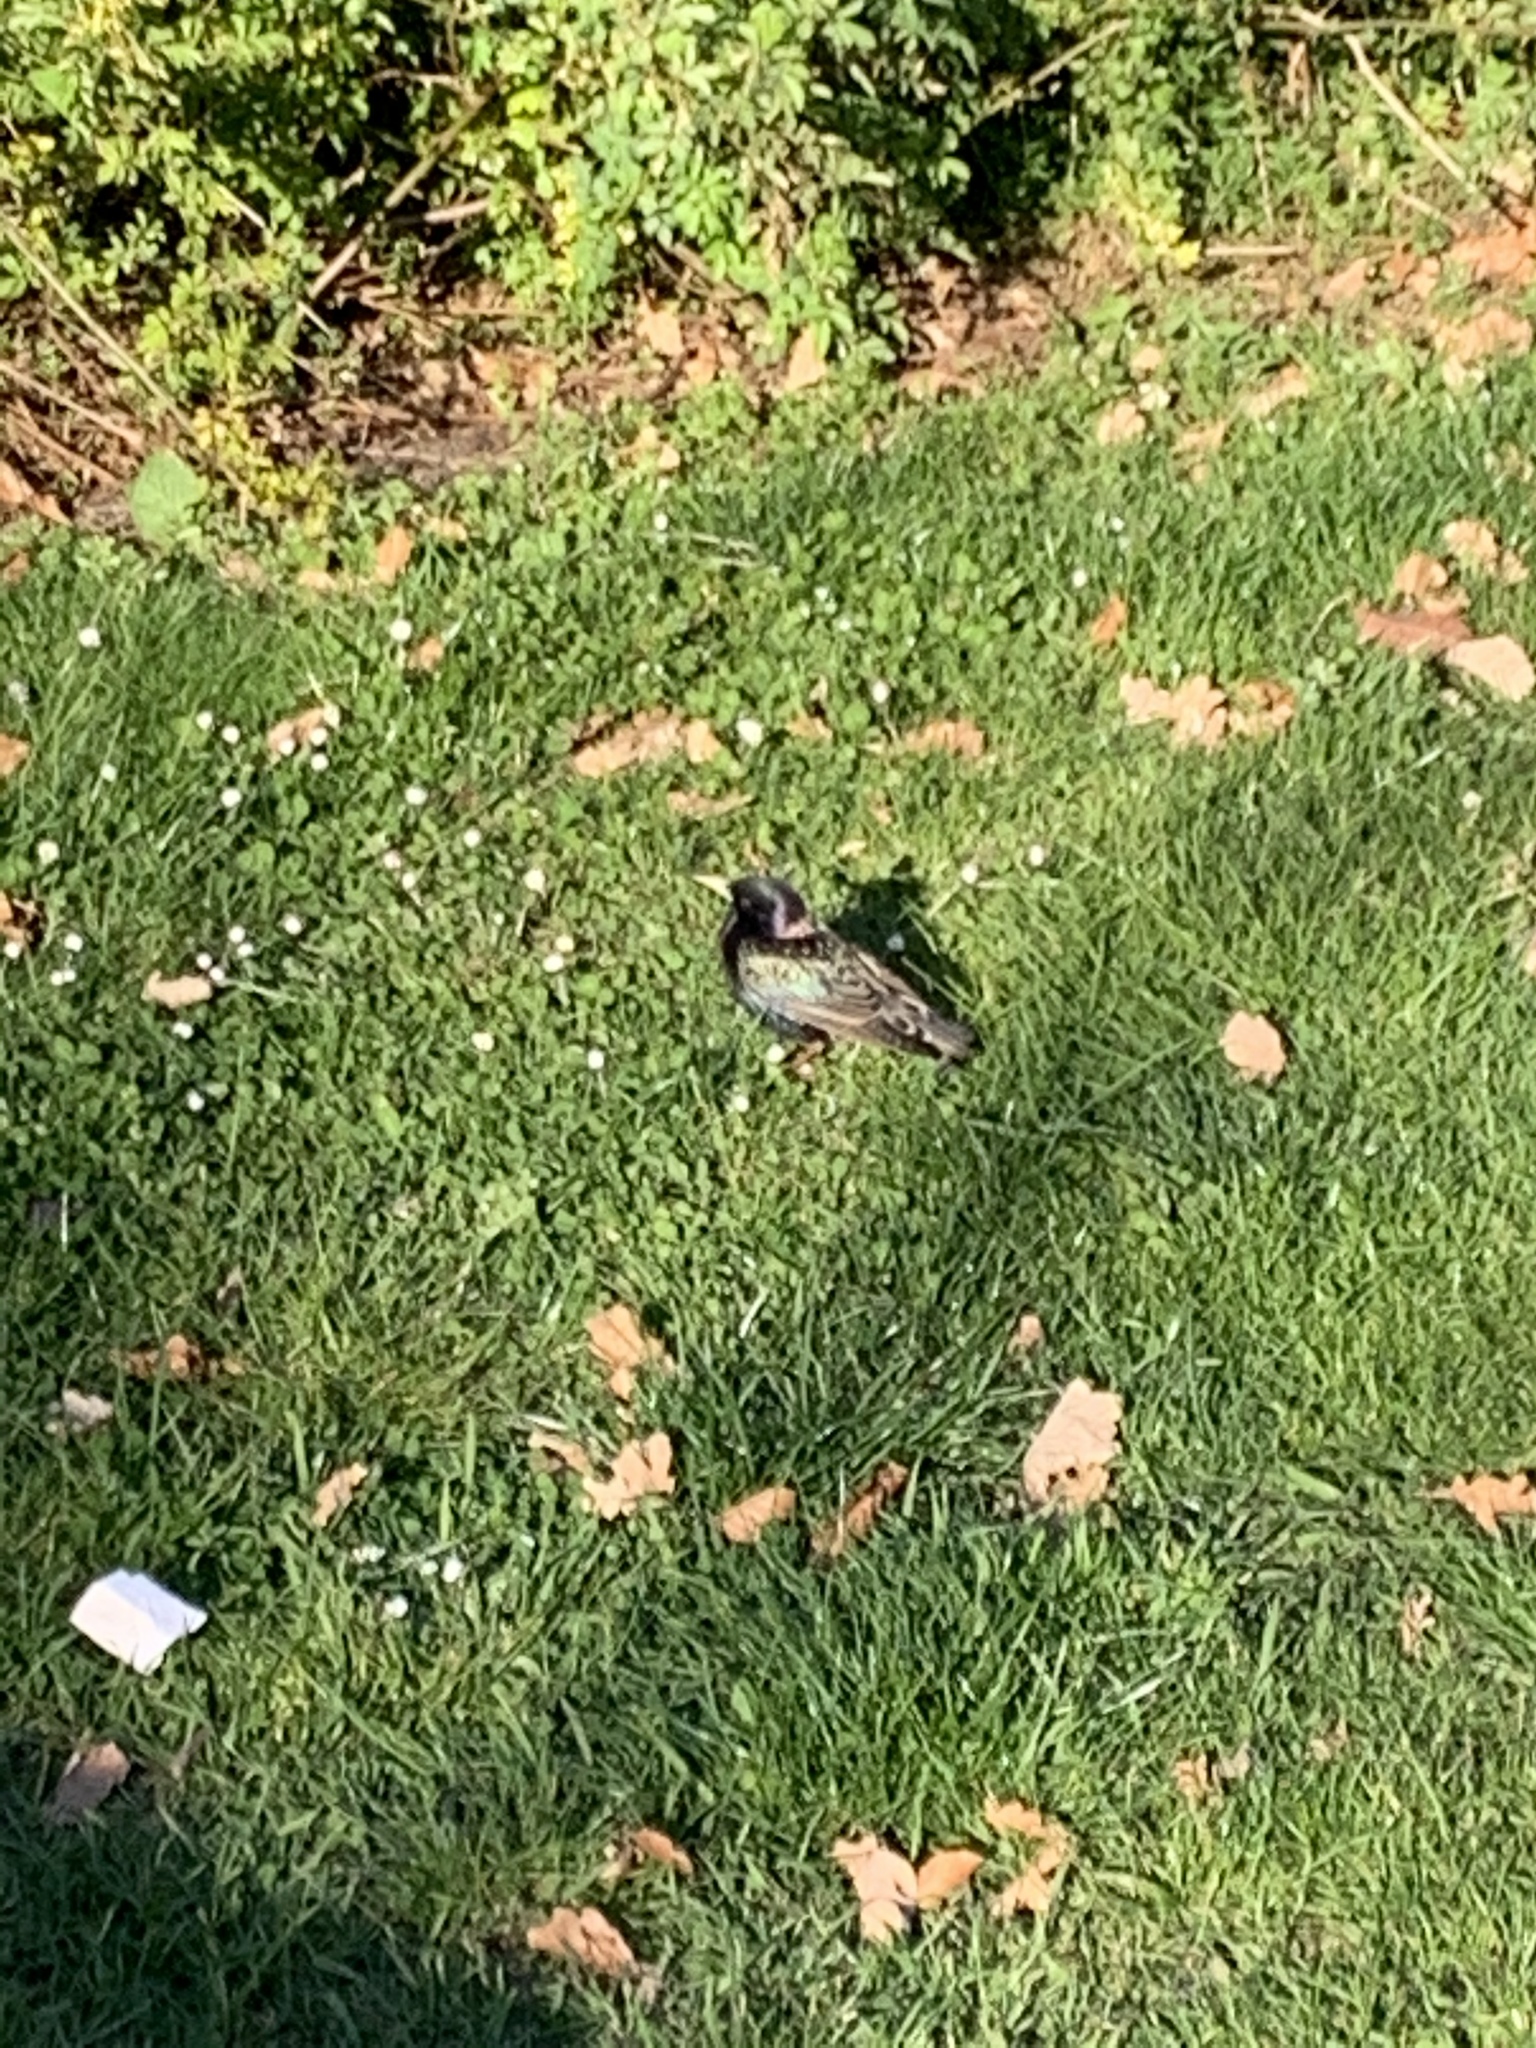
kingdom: Animalia
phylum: Chordata
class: Aves
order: Passeriformes
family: Sturnidae
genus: Sturnus
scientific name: Sturnus vulgaris
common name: Common starling
